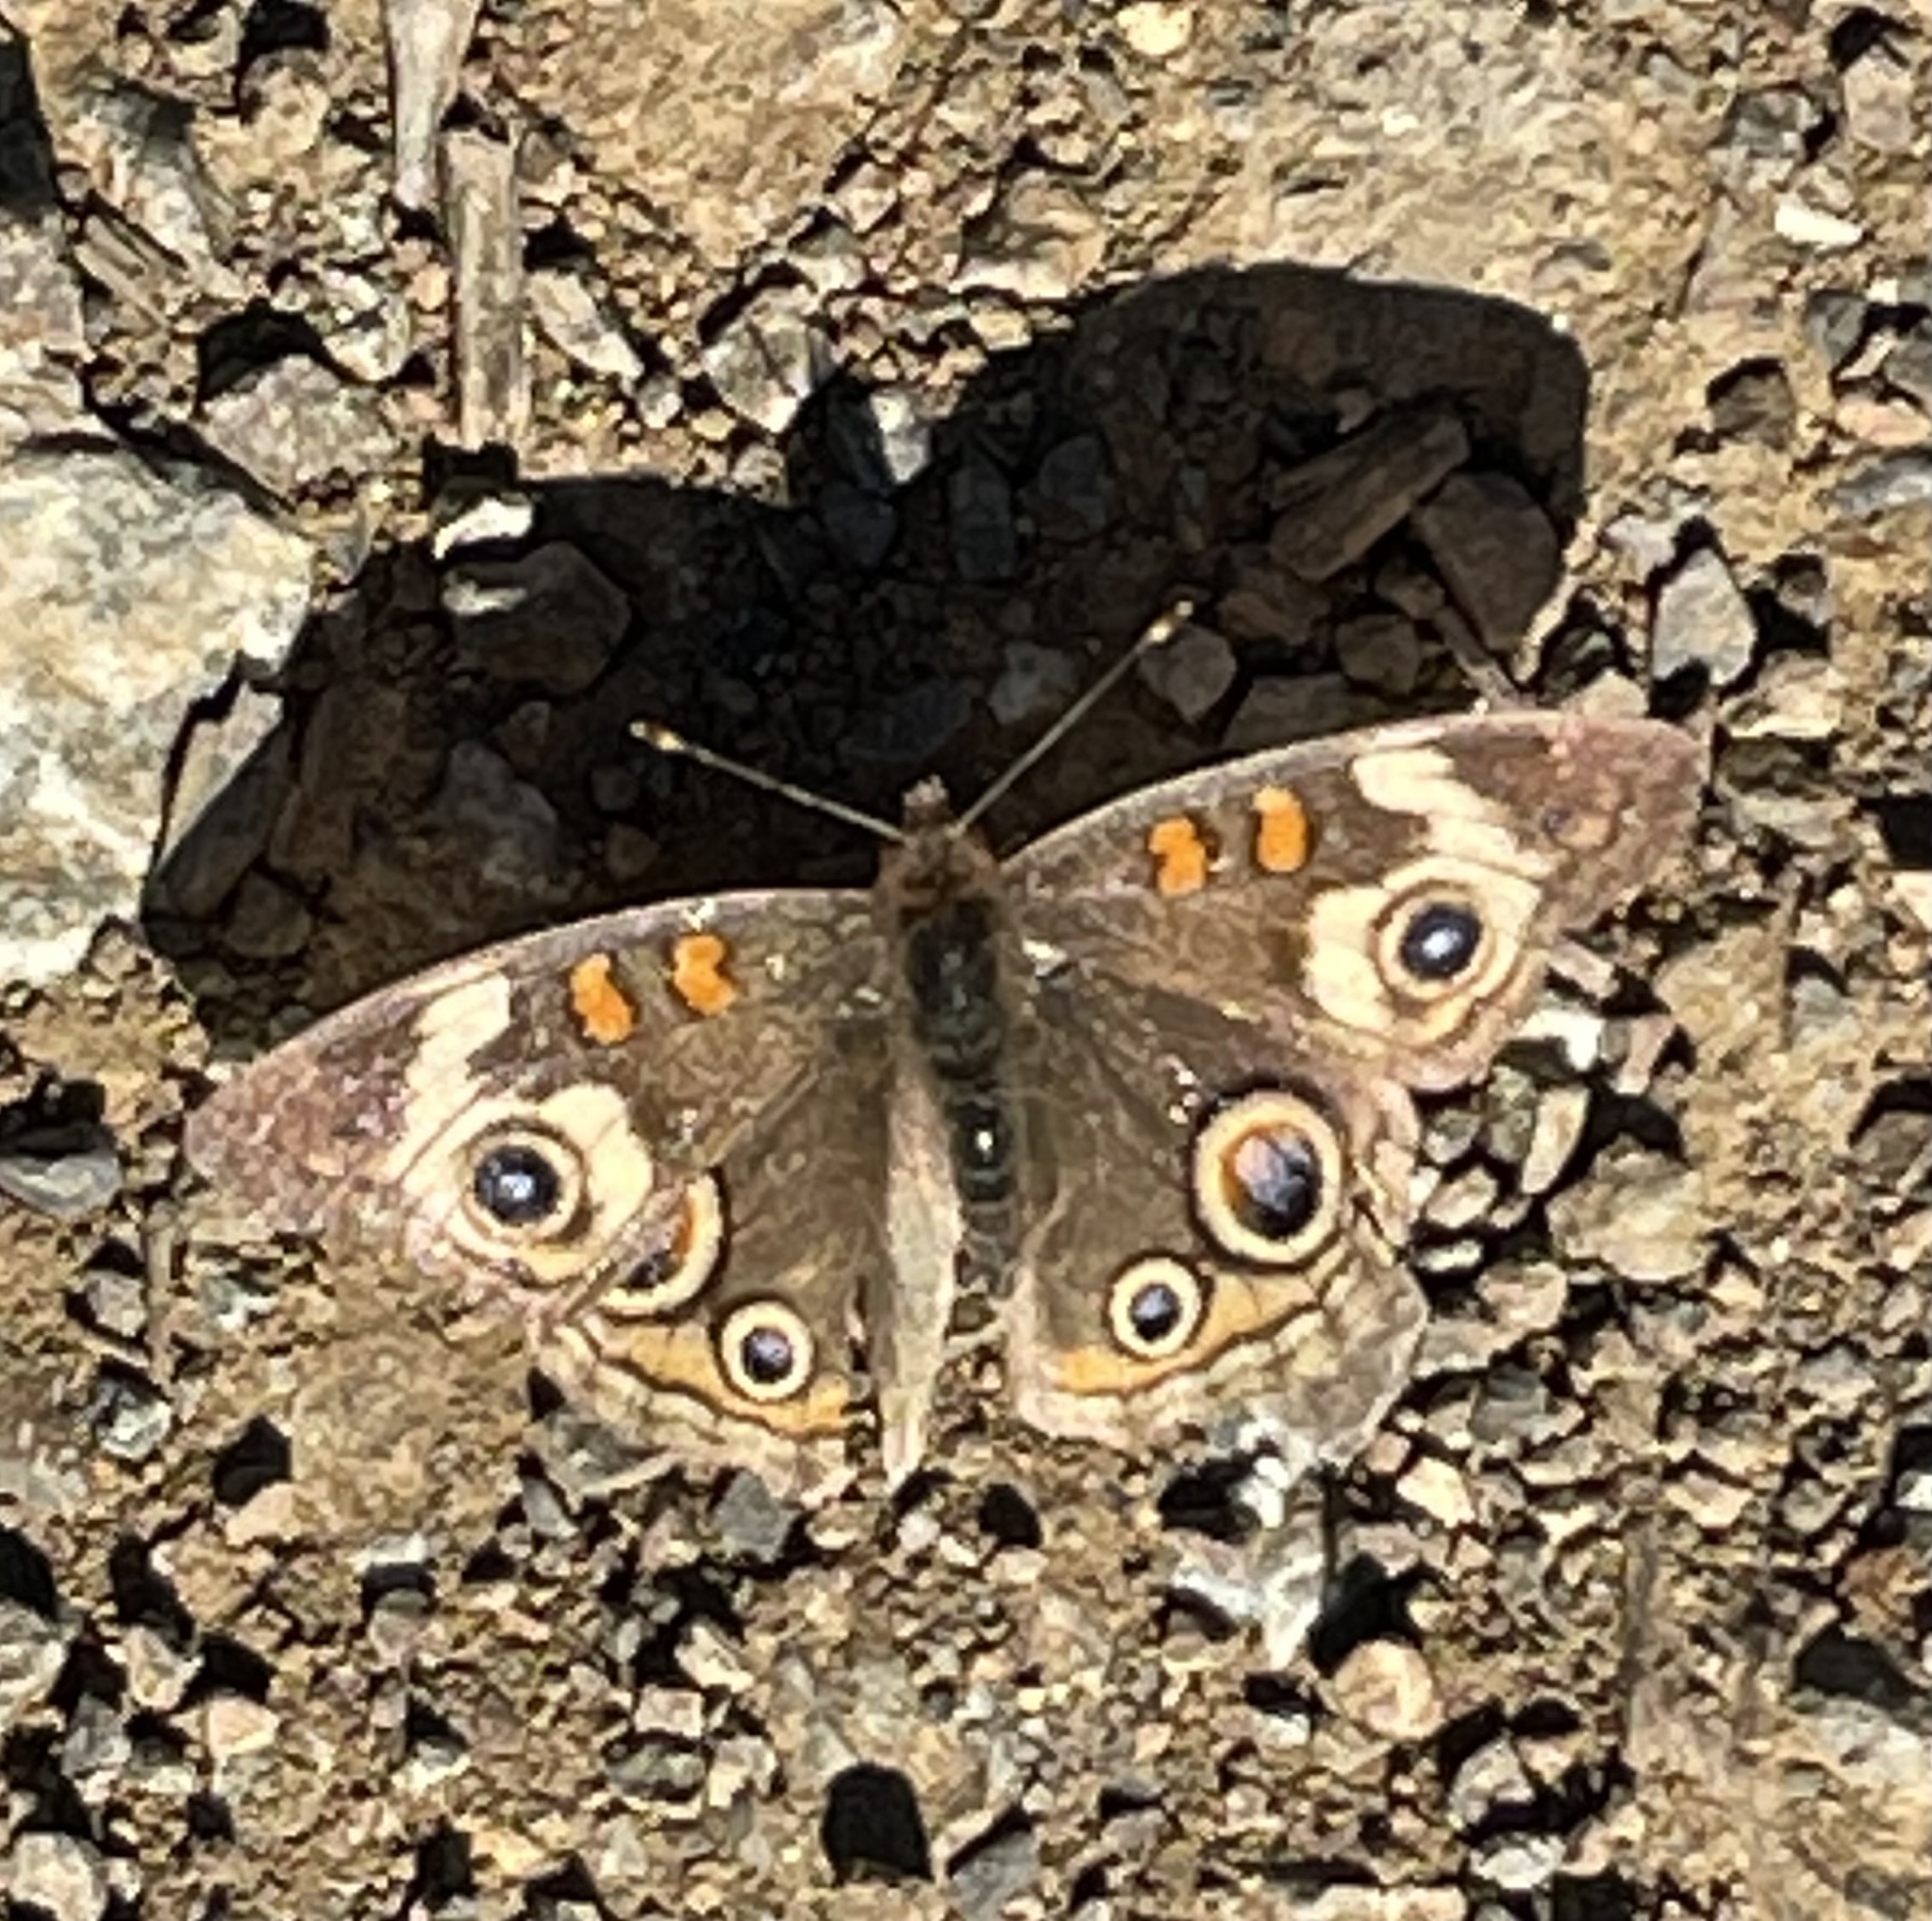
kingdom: Animalia
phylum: Arthropoda
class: Insecta
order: Lepidoptera
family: Nymphalidae
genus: Junonia
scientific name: Junonia grisea
